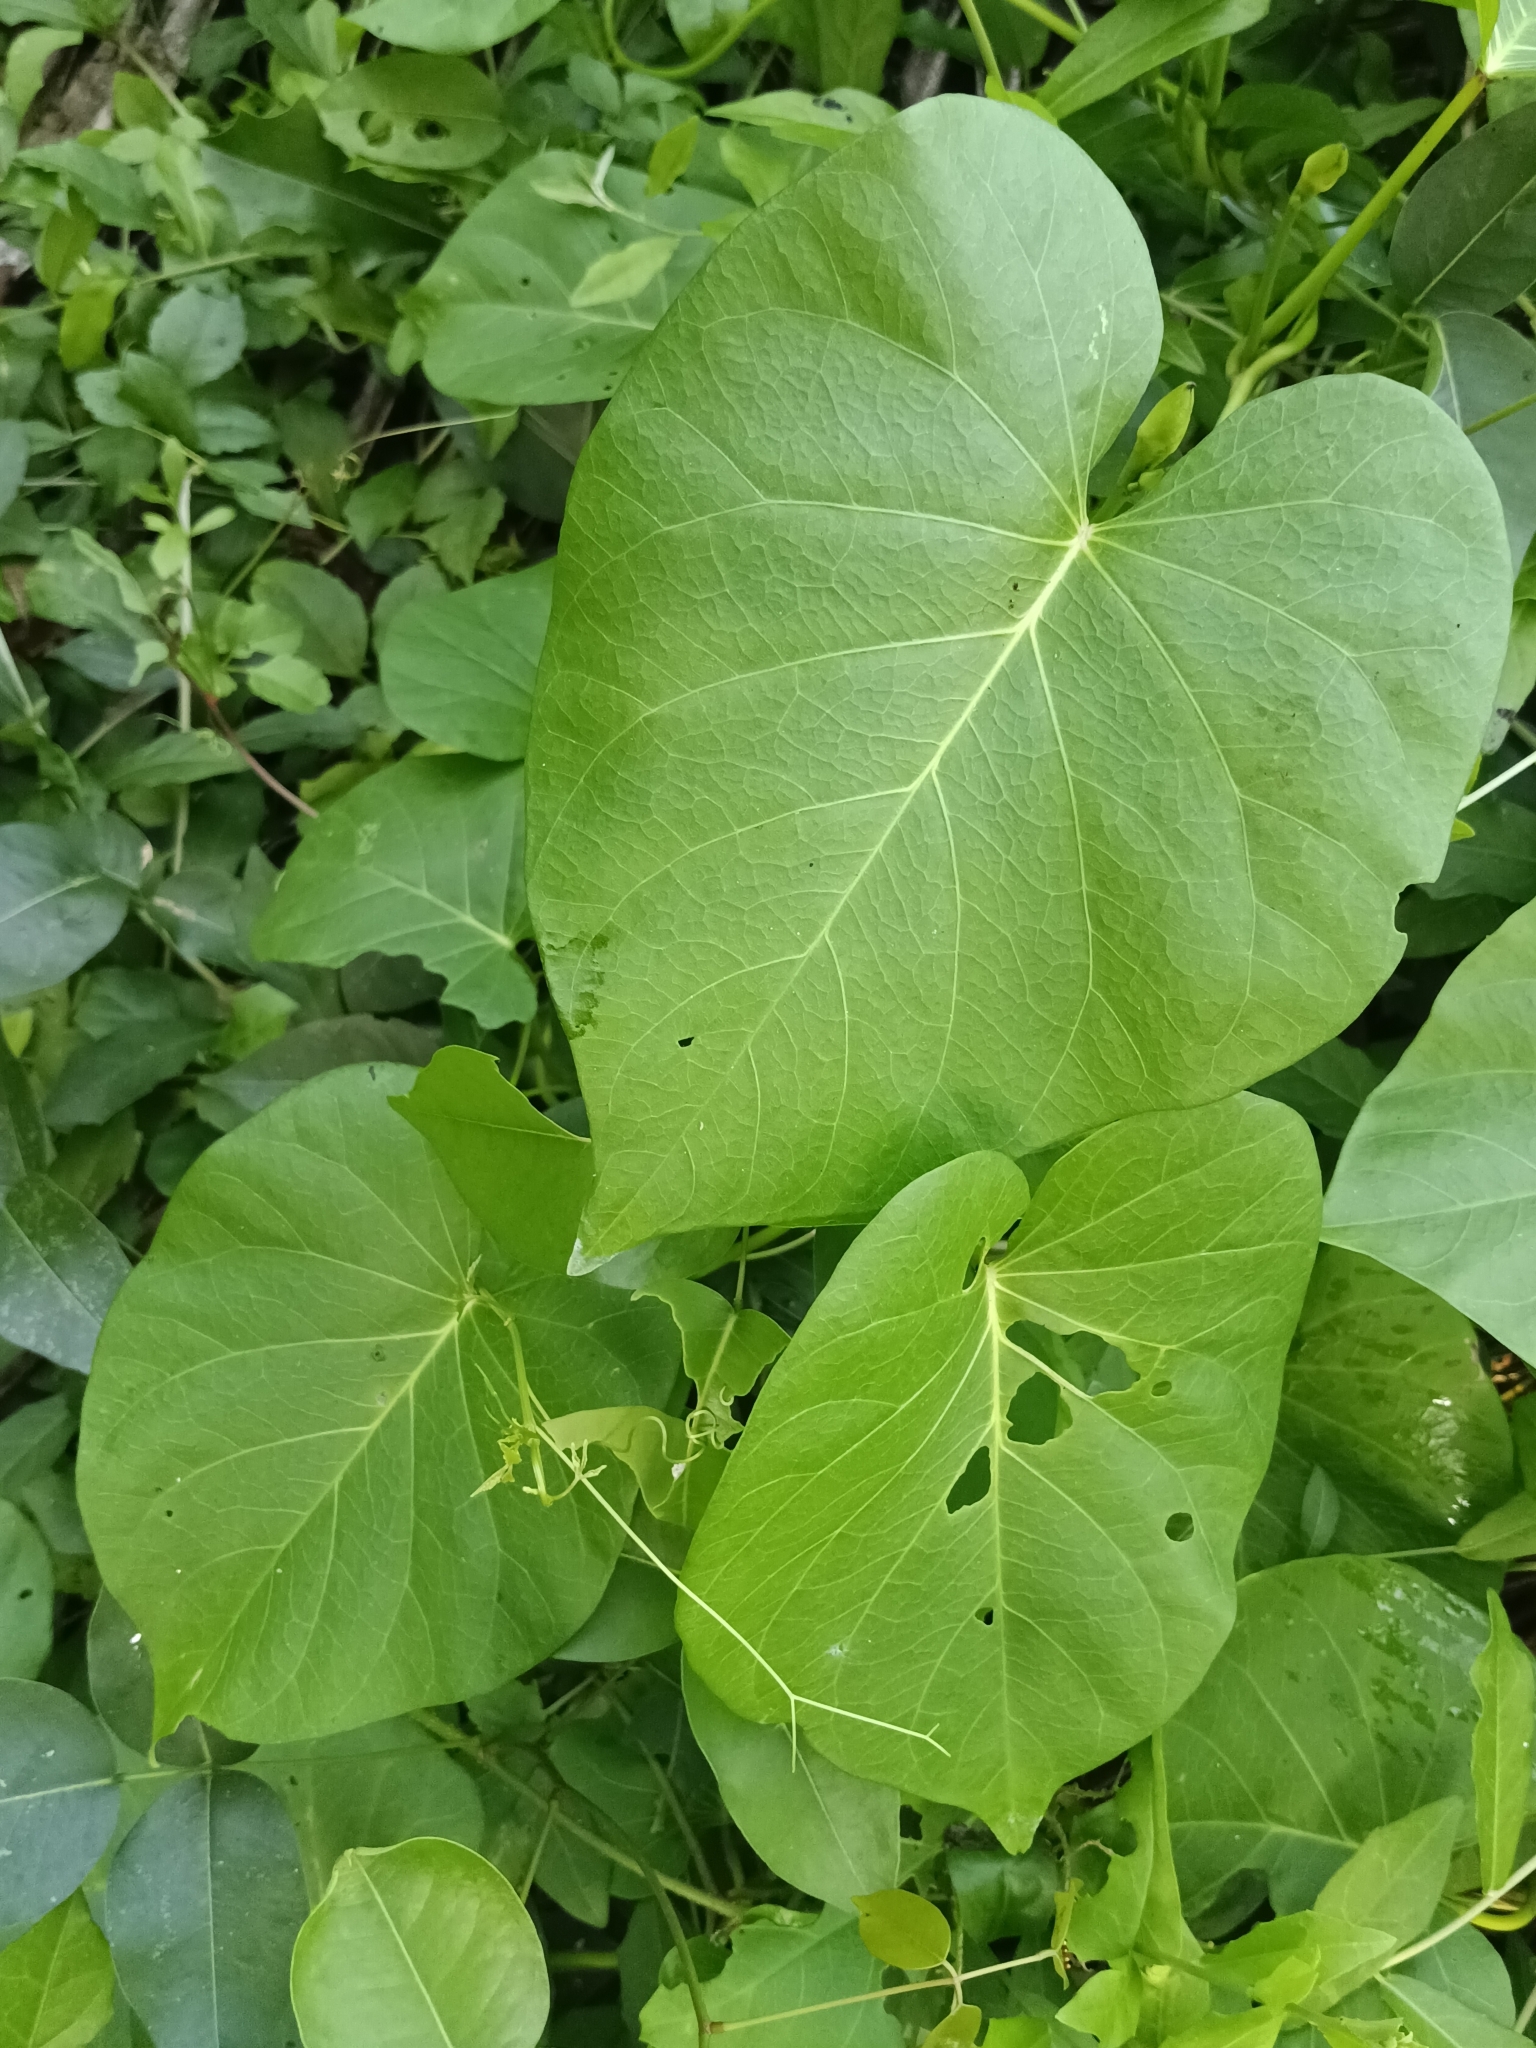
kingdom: Plantae
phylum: Tracheophyta
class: Magnoliopsida
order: Solanales
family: Convolvulaceae
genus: Ipomoea
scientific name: Ipomoea violacea
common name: Beach moonflower
